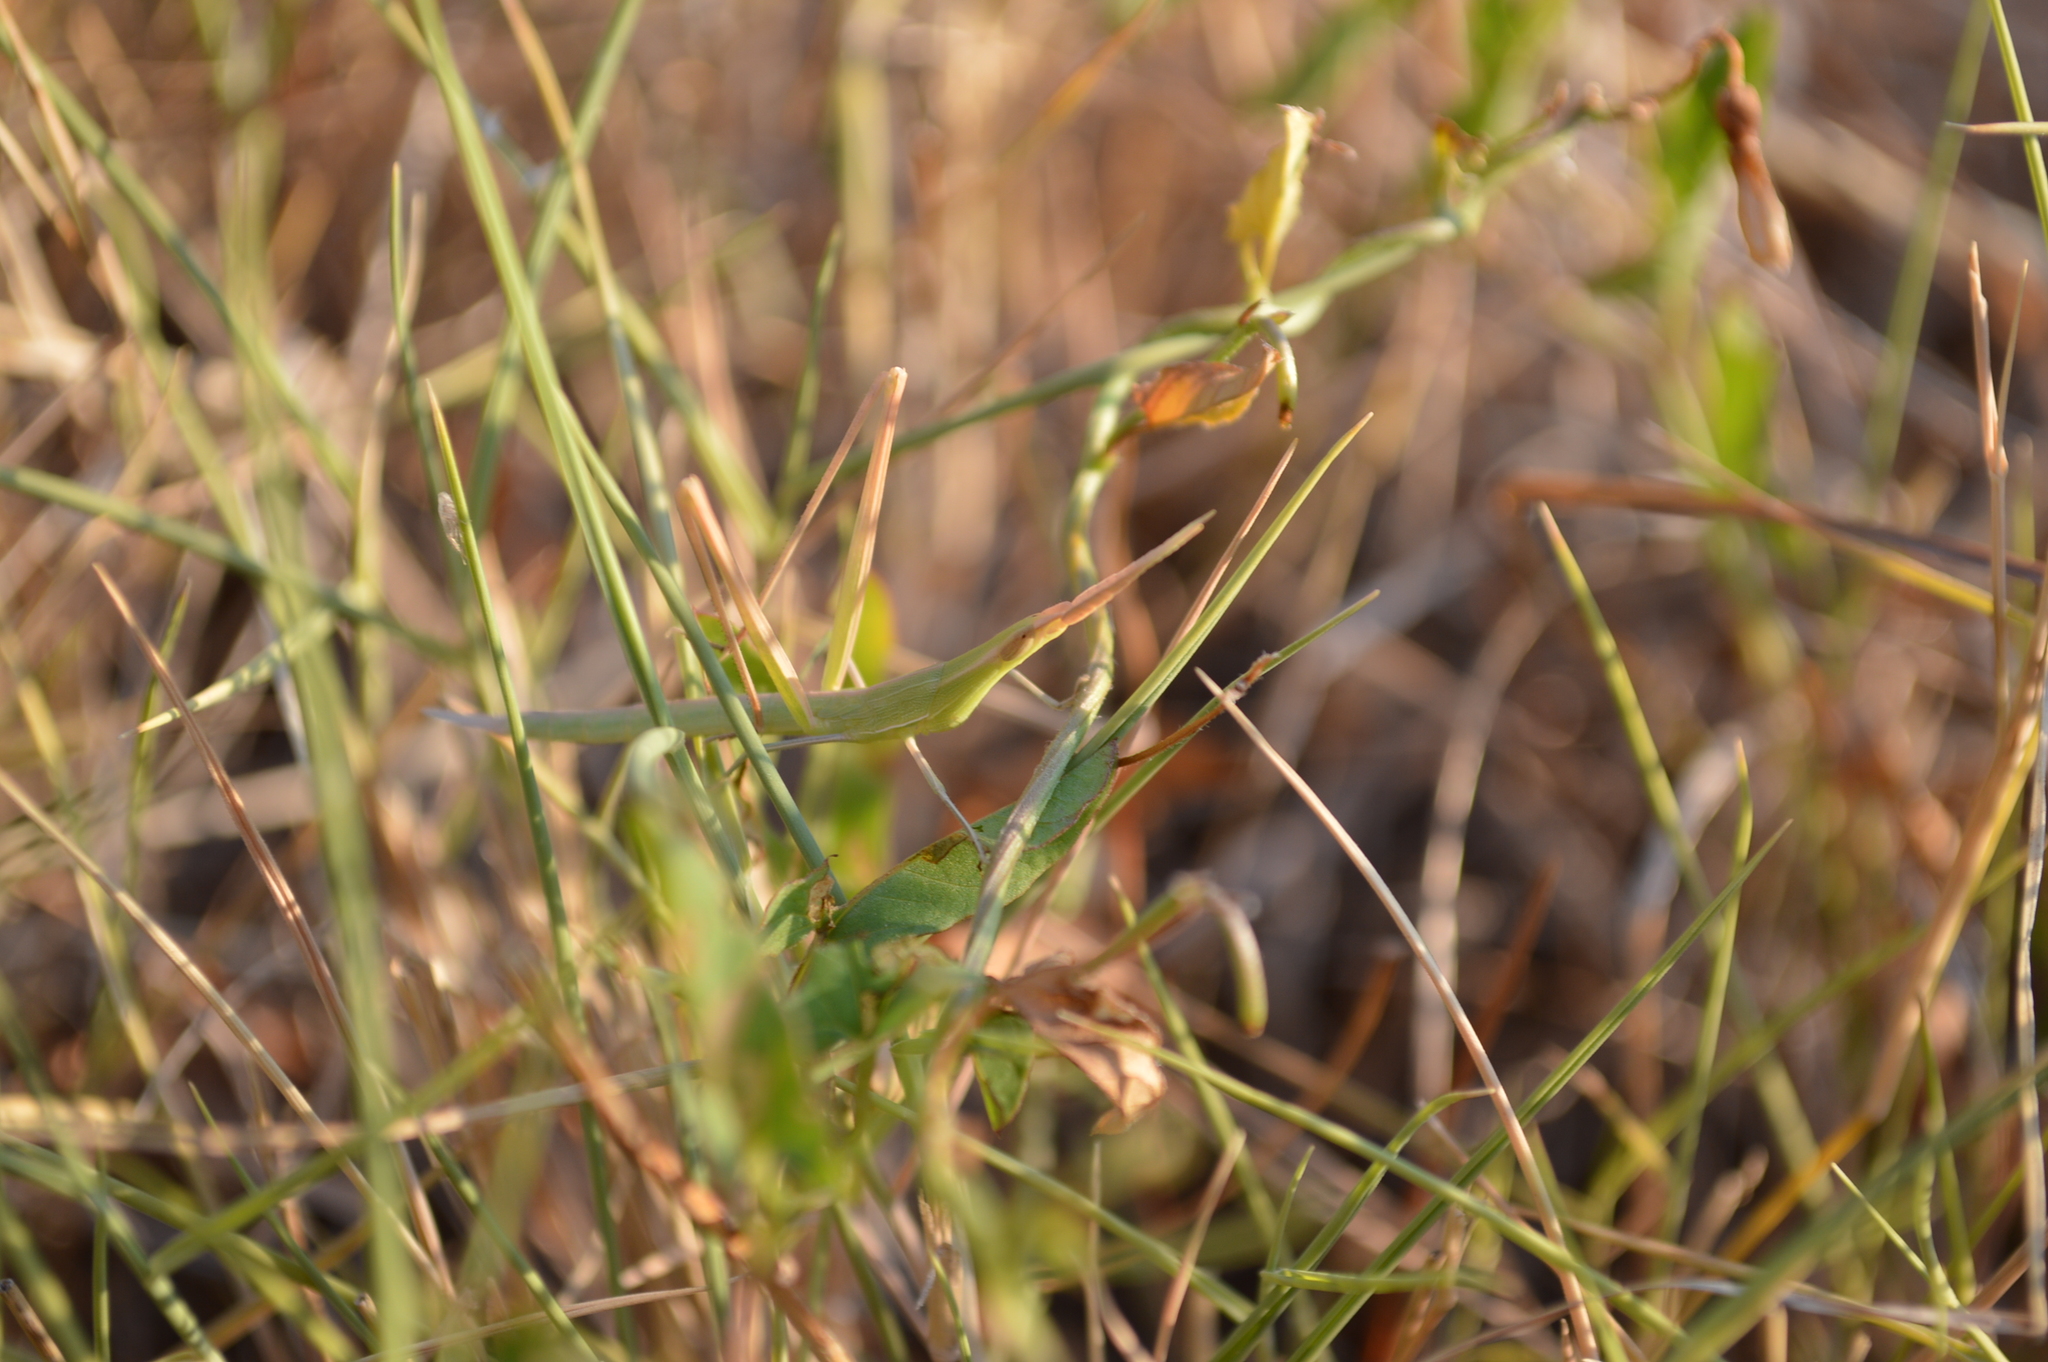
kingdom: Animalia
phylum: Arthropoda
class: Insecta
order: Orthoptera
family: Acrididae
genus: Acrida
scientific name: Acrida ungarica
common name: Common cone-headed grasshopper
